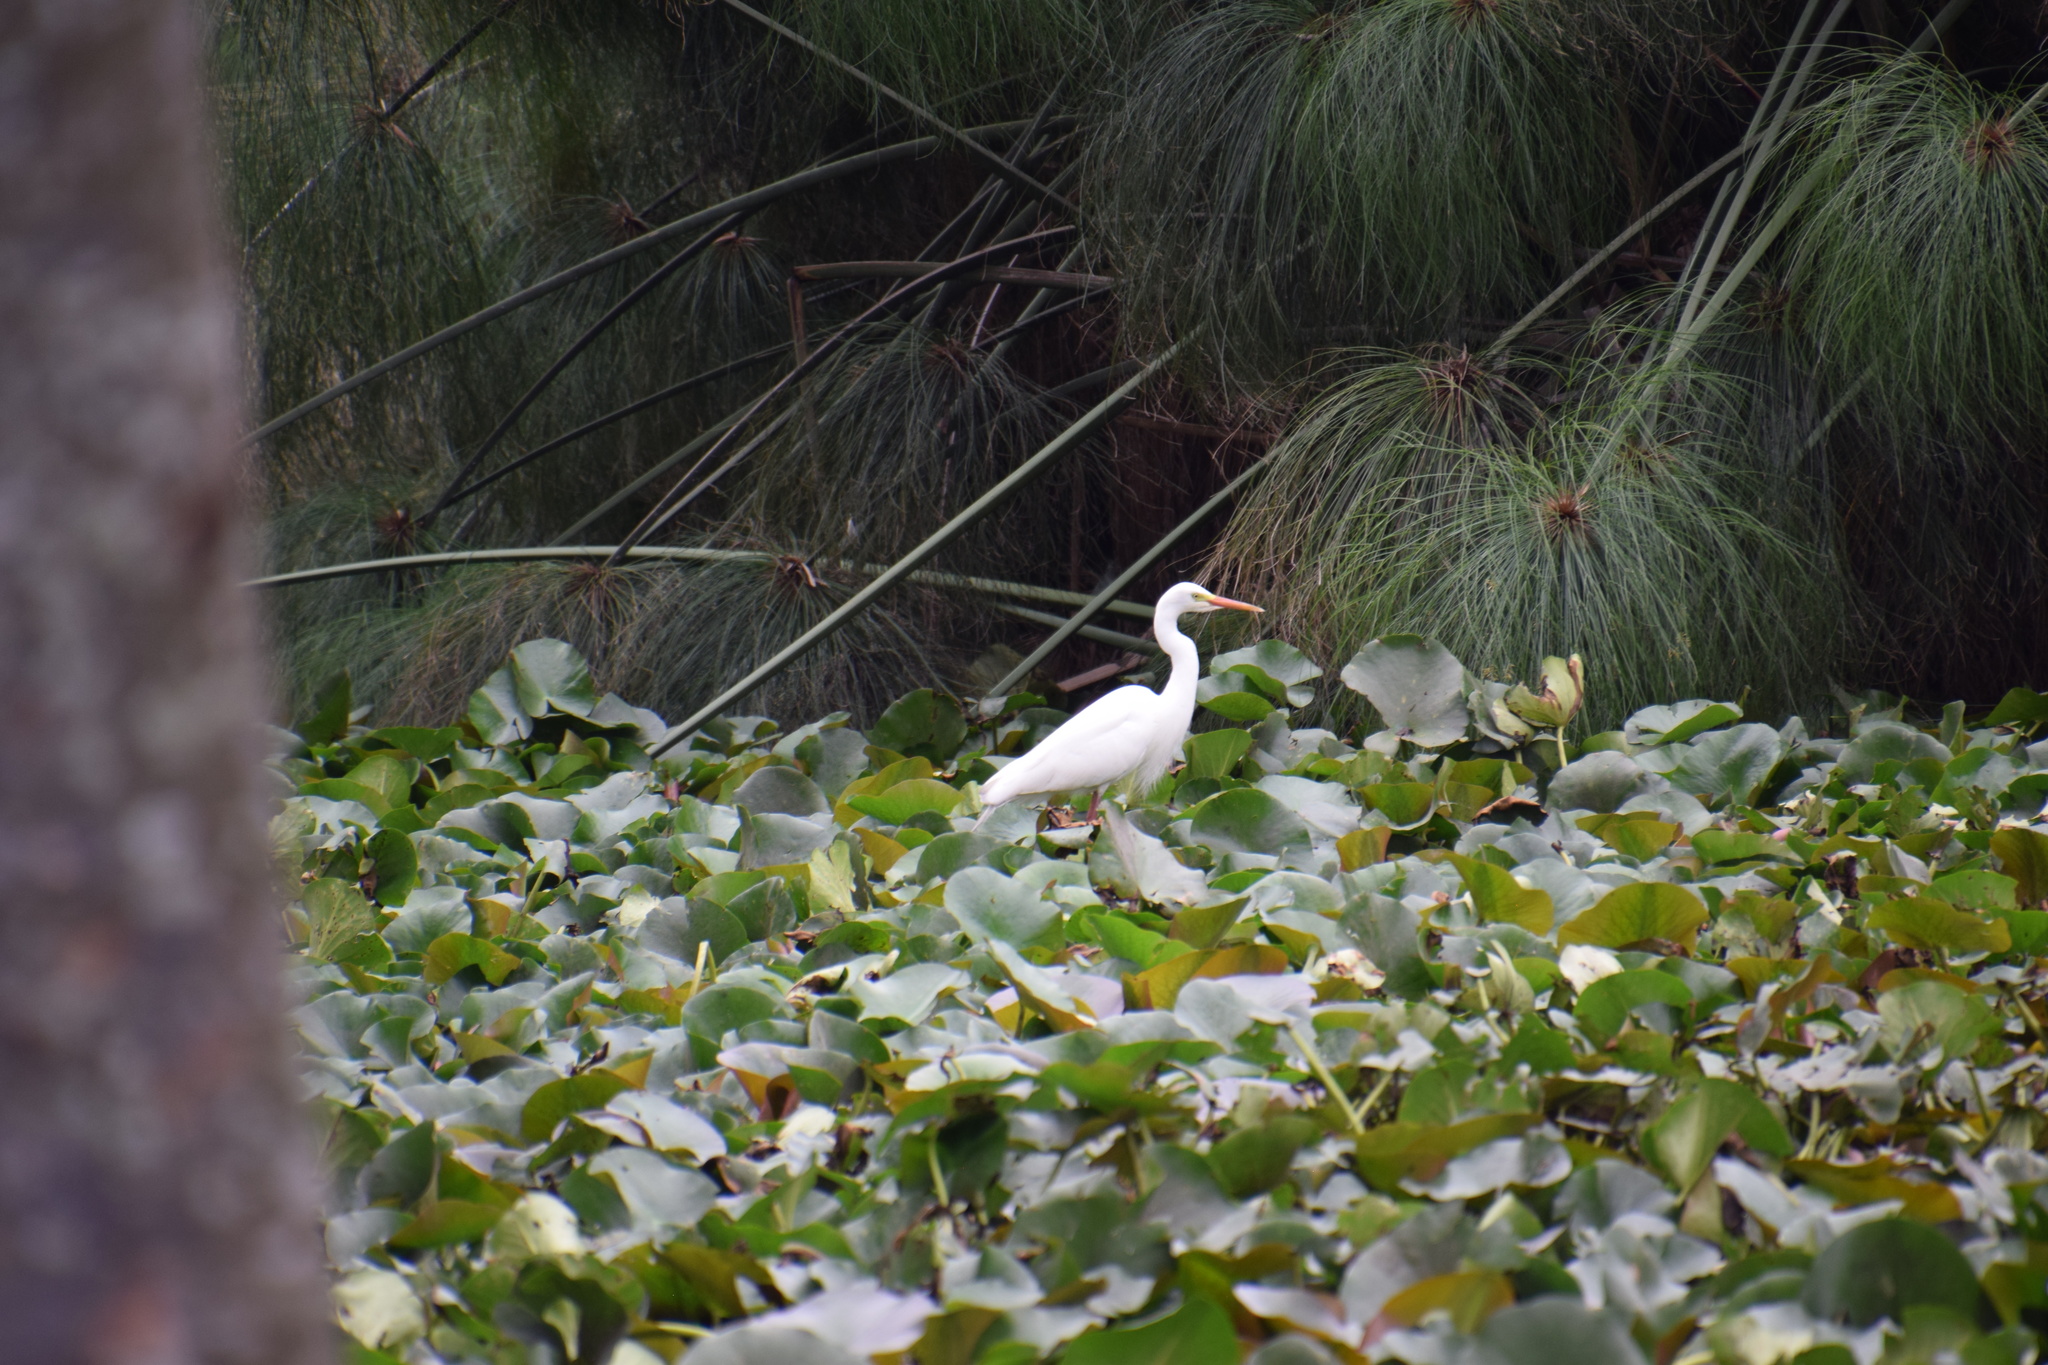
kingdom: Animalia
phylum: Chordata
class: Aves
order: Pelecaniformes
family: Ardeidae
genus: Egretta
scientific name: Egretta intermedia
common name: Intermediate egret
